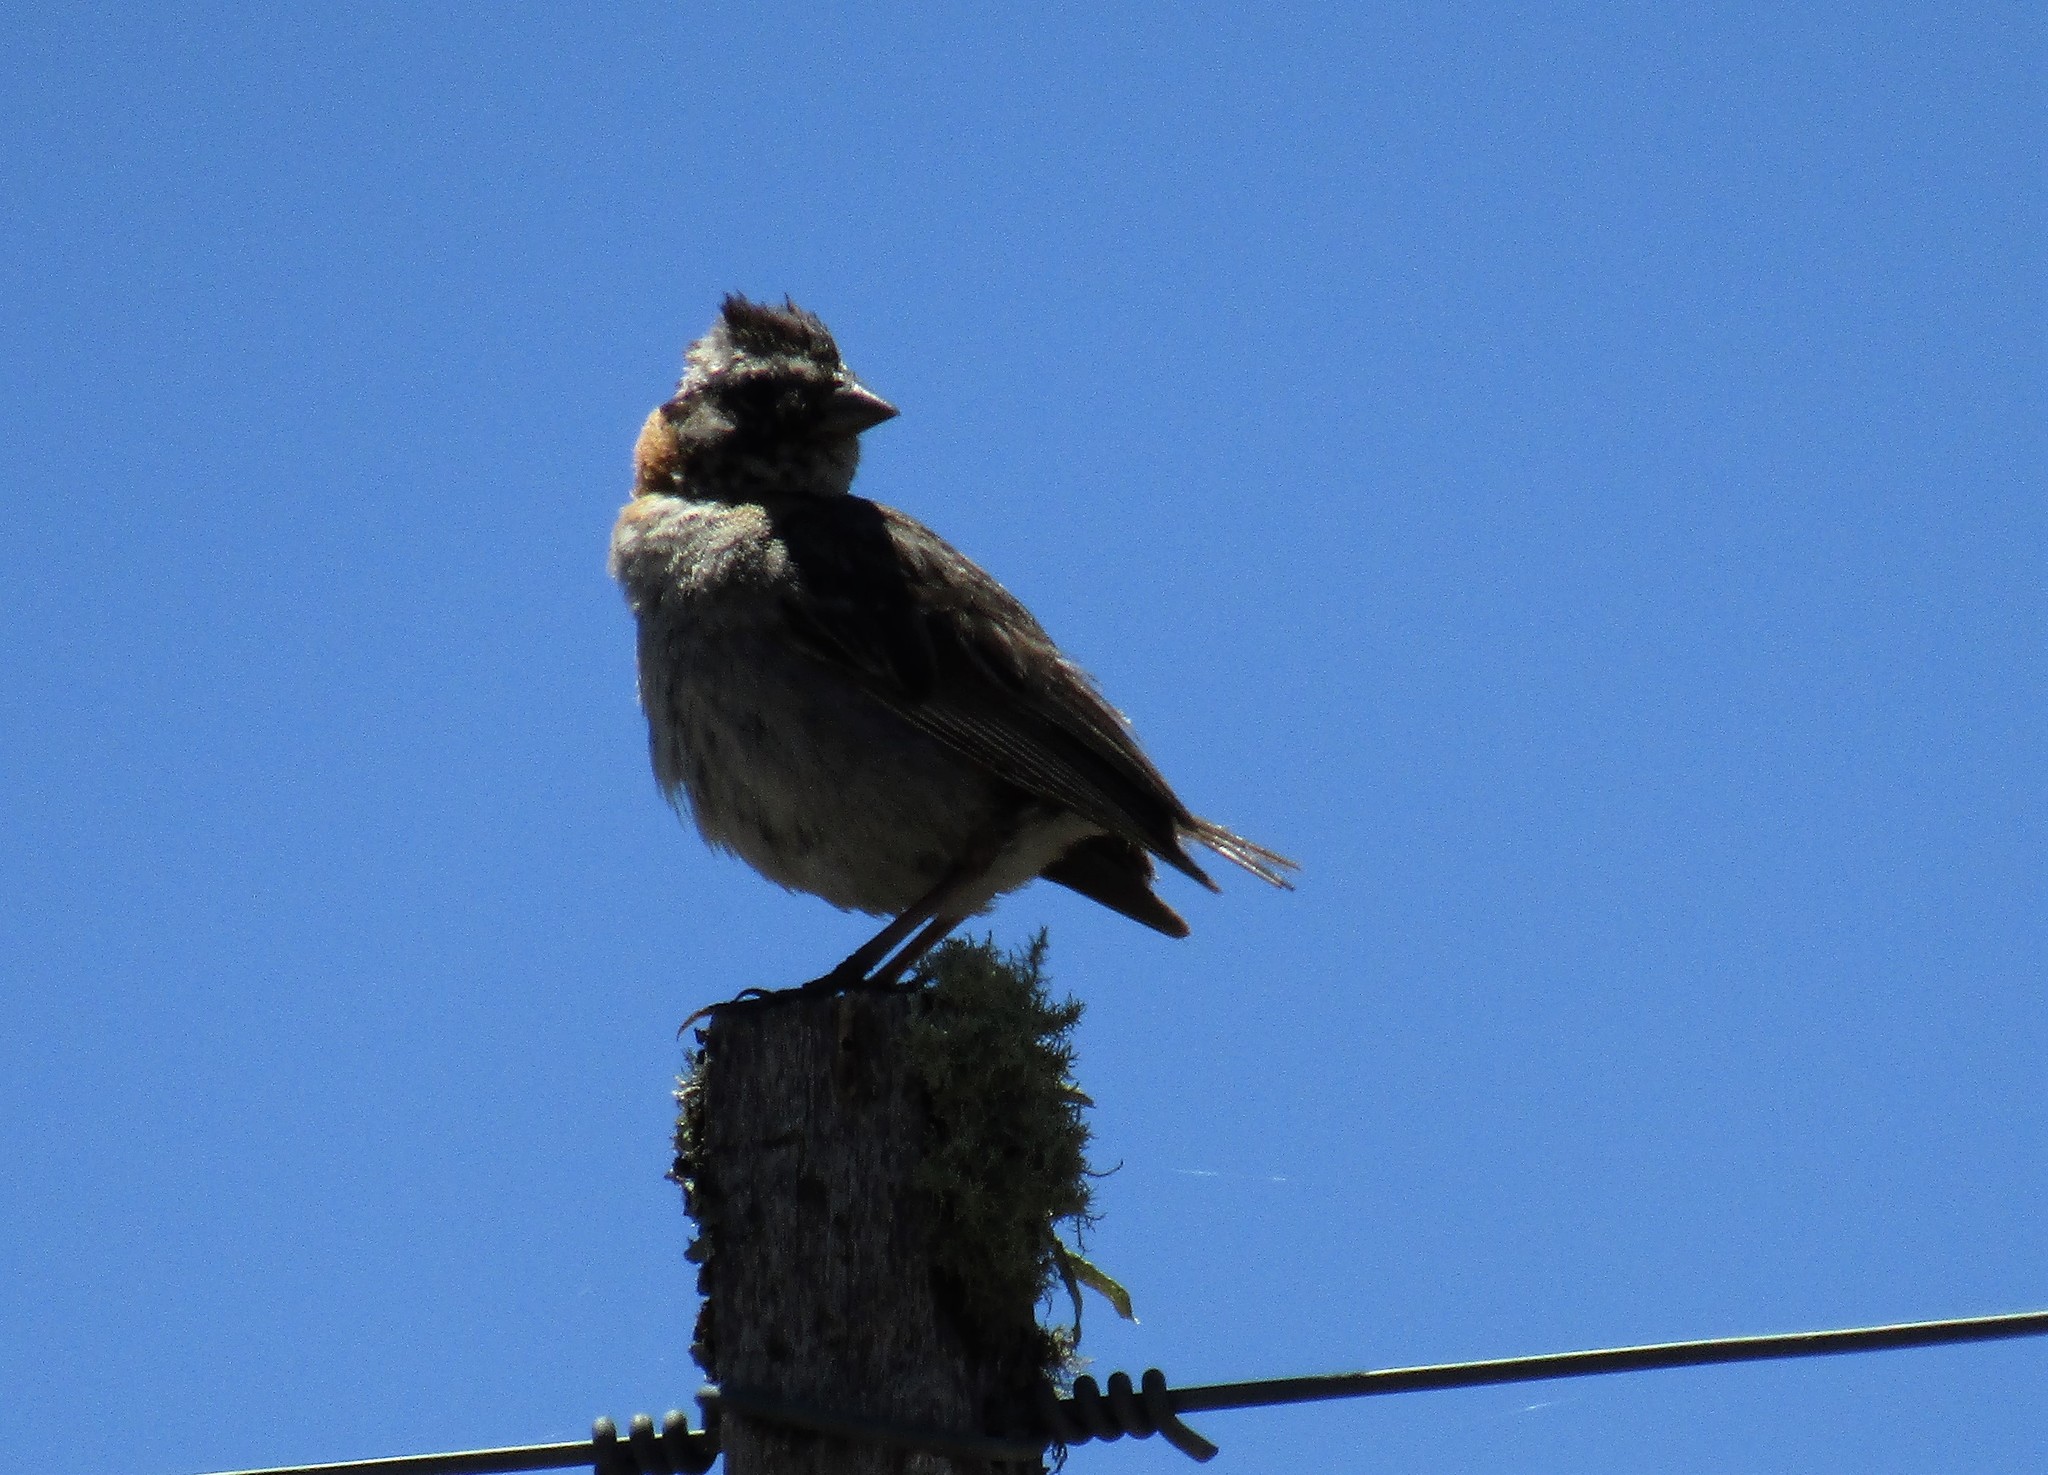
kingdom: Animalia
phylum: Chordata
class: Aves
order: Passeriformes
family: Passerellidae
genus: Zonotrichia
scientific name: Zonotrichia capensis
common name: Rufous-collared sparrow
